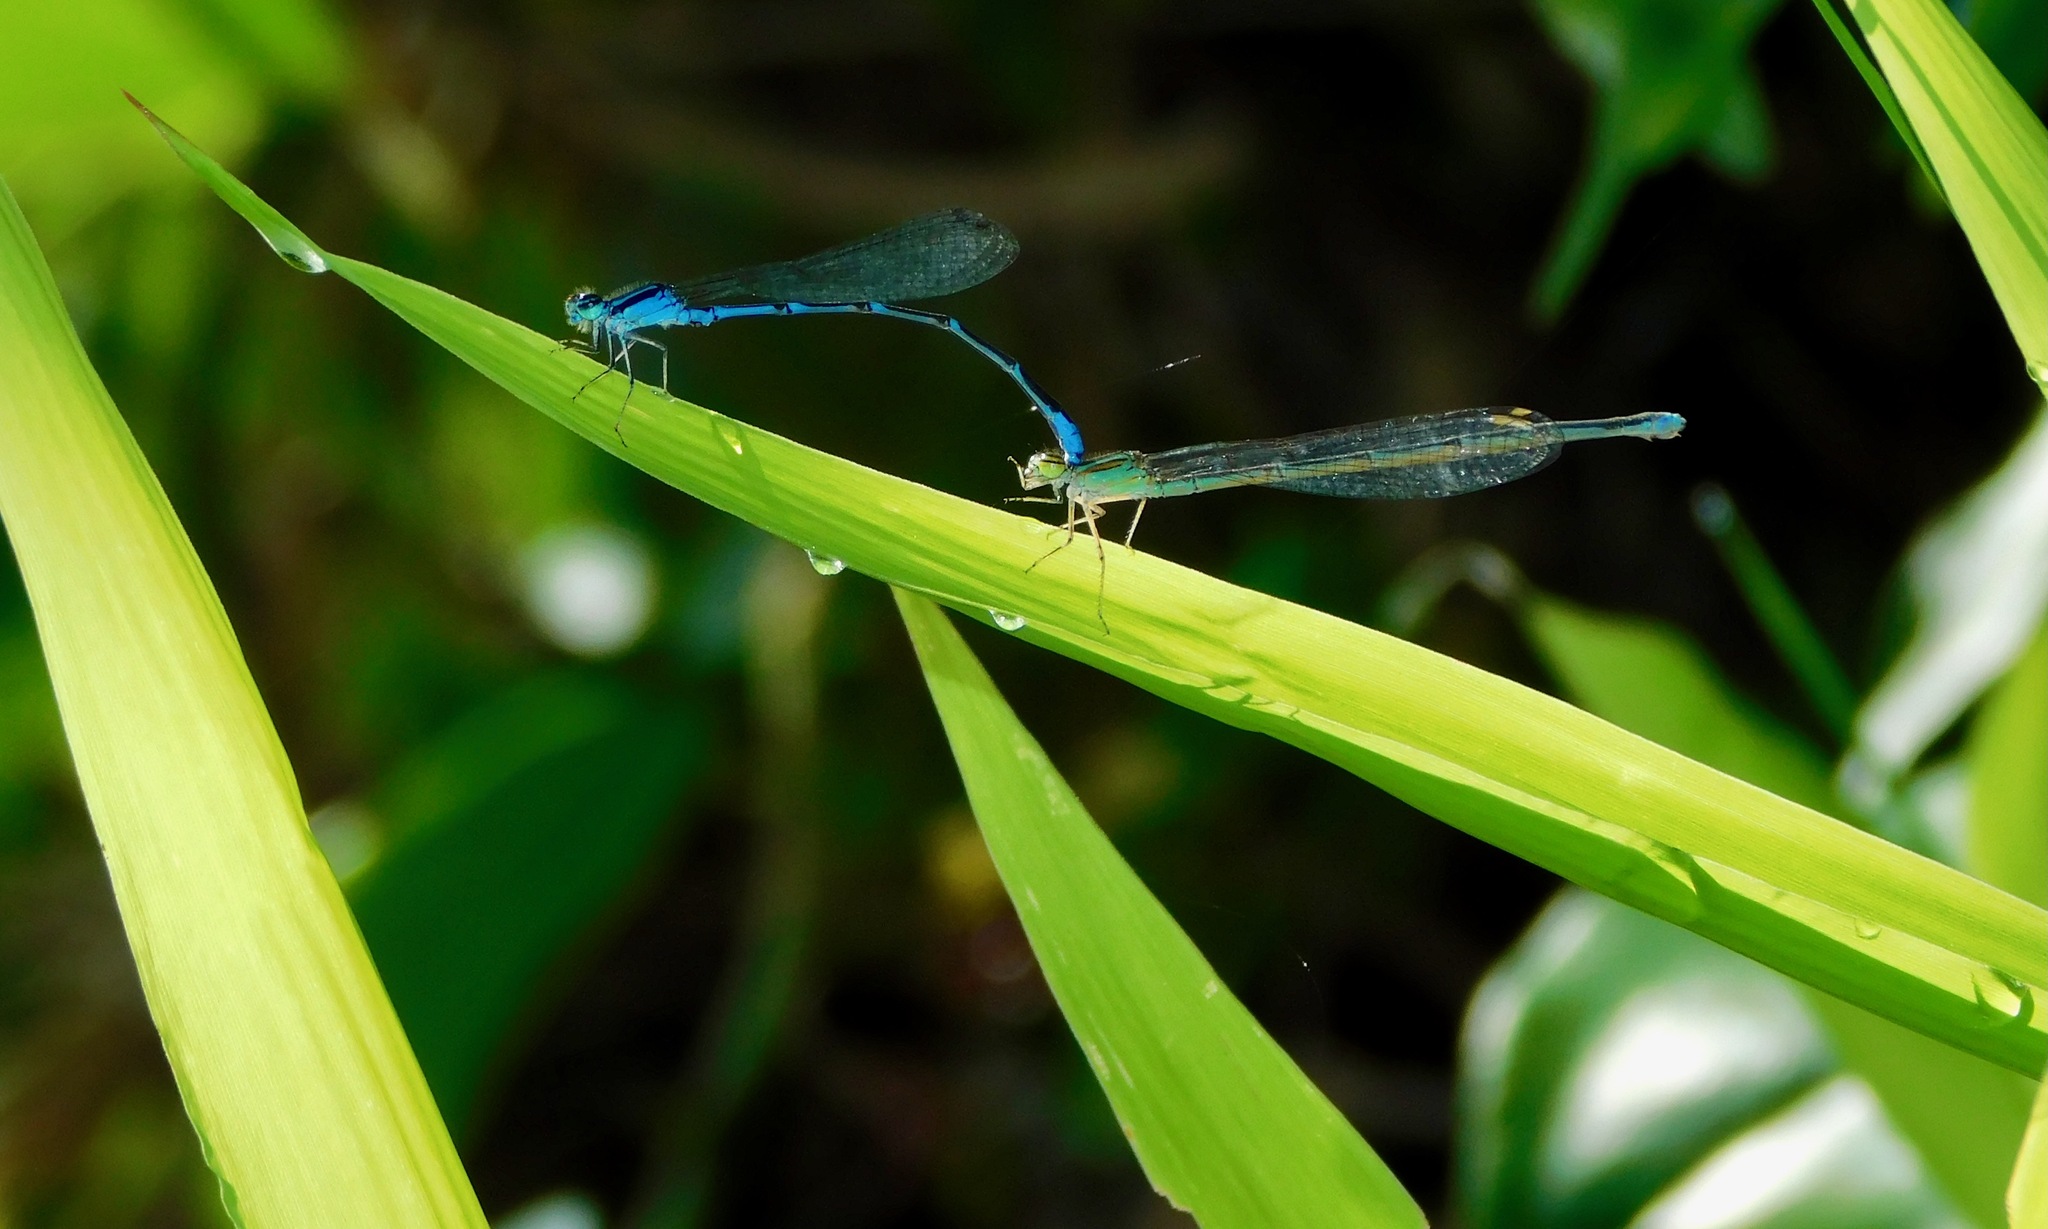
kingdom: Animalia
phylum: Arthropoda
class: Insecta
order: Odonata
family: Coenagrionidae
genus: Enallagma
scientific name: Enallagma exsulans
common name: Stream bluet
